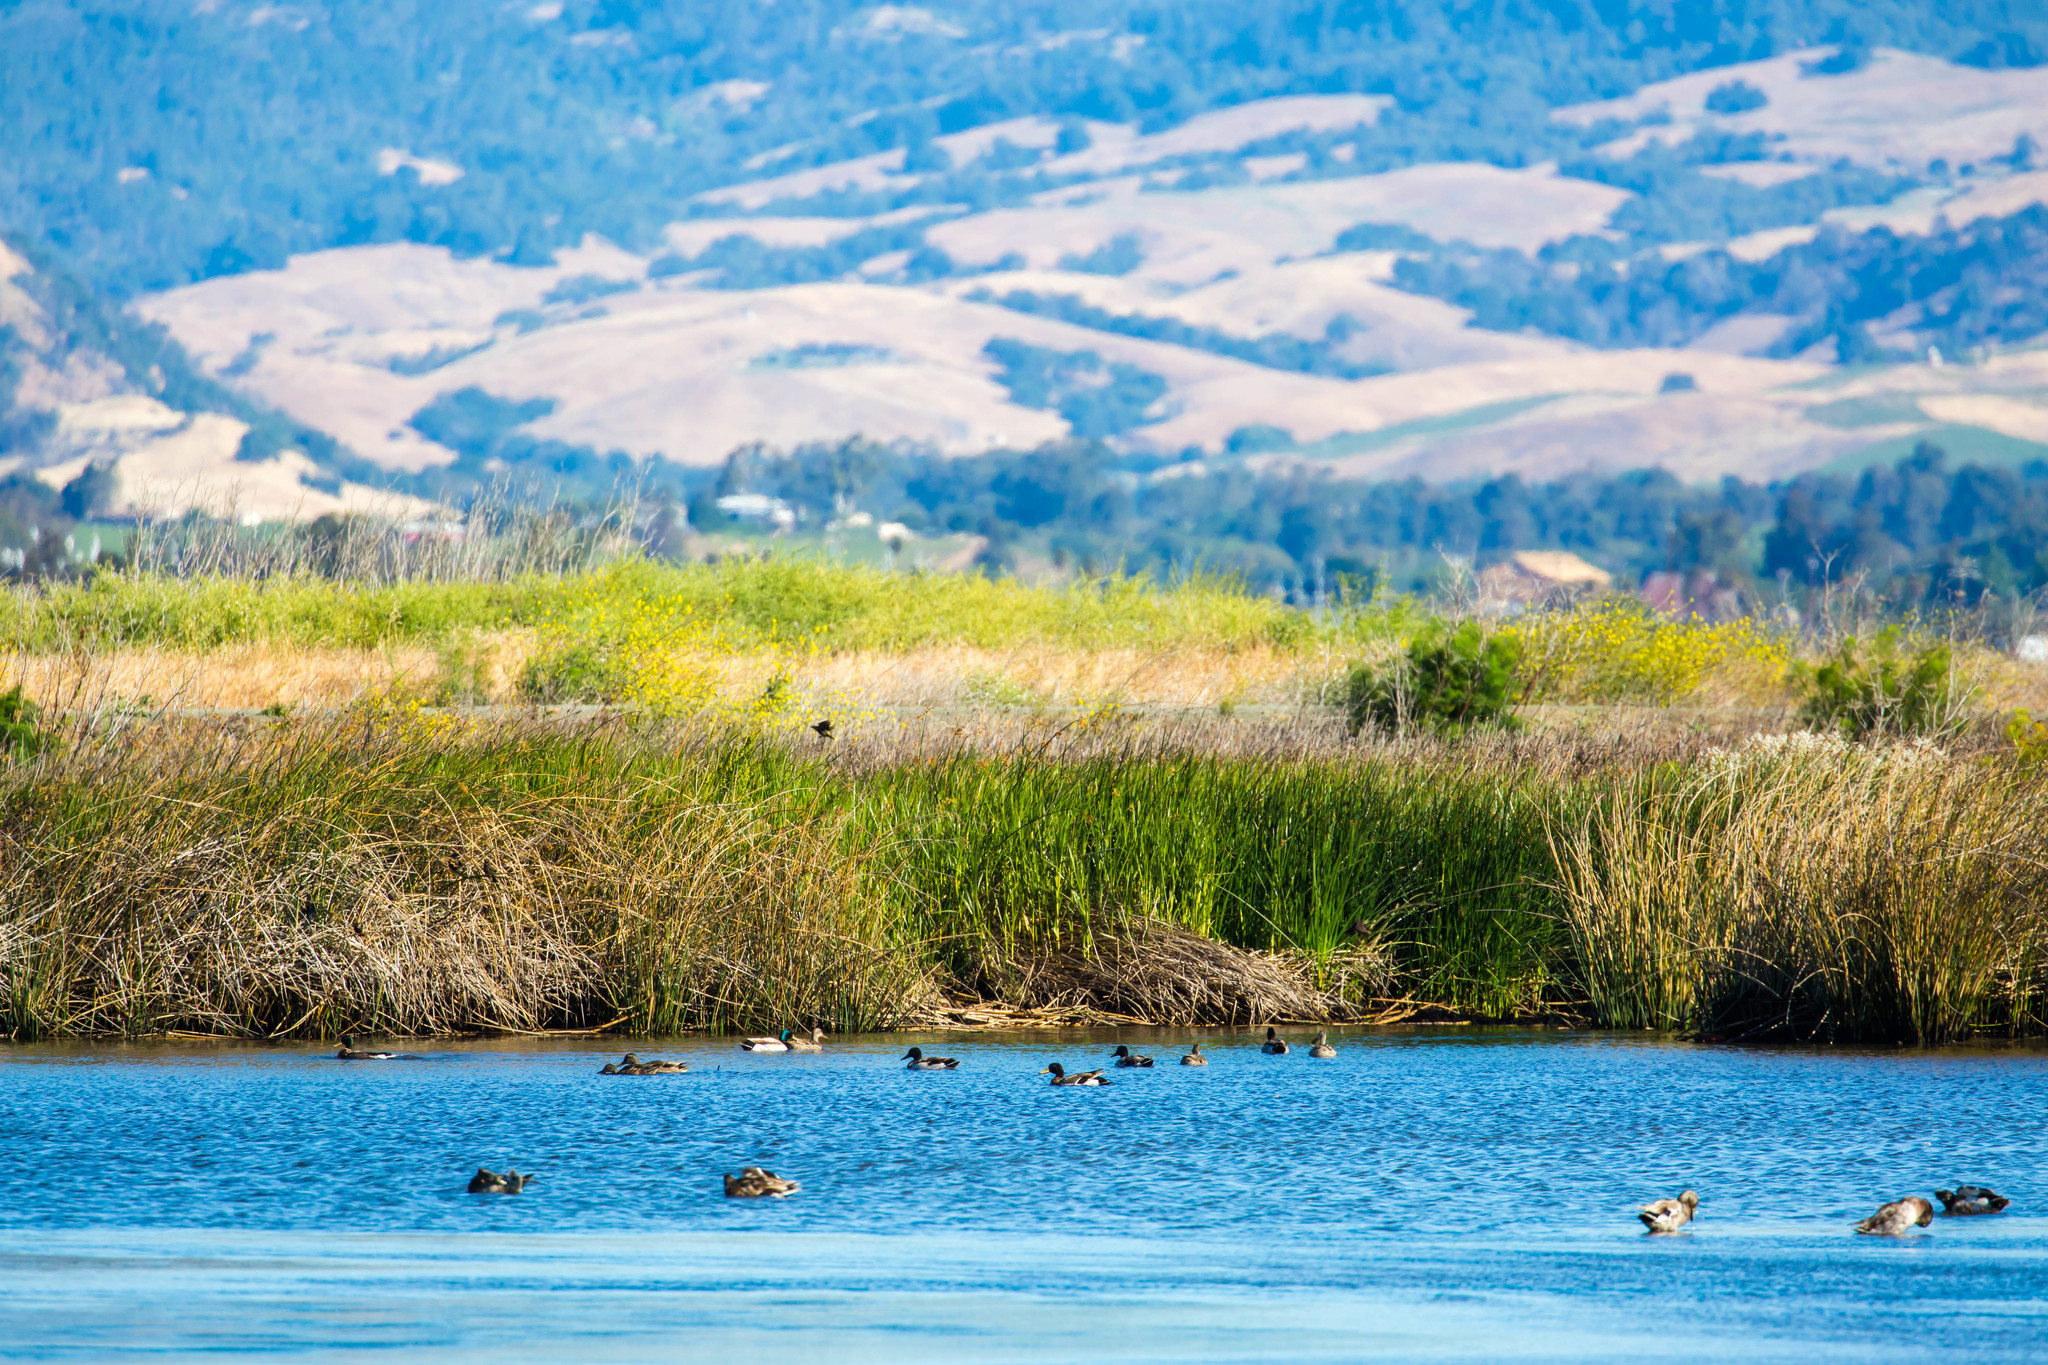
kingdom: Animalia
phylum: Chordata
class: Aves
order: Anseriformes
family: Anatidae
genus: Anas
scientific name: Anas platyrhynchos
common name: Mallard
